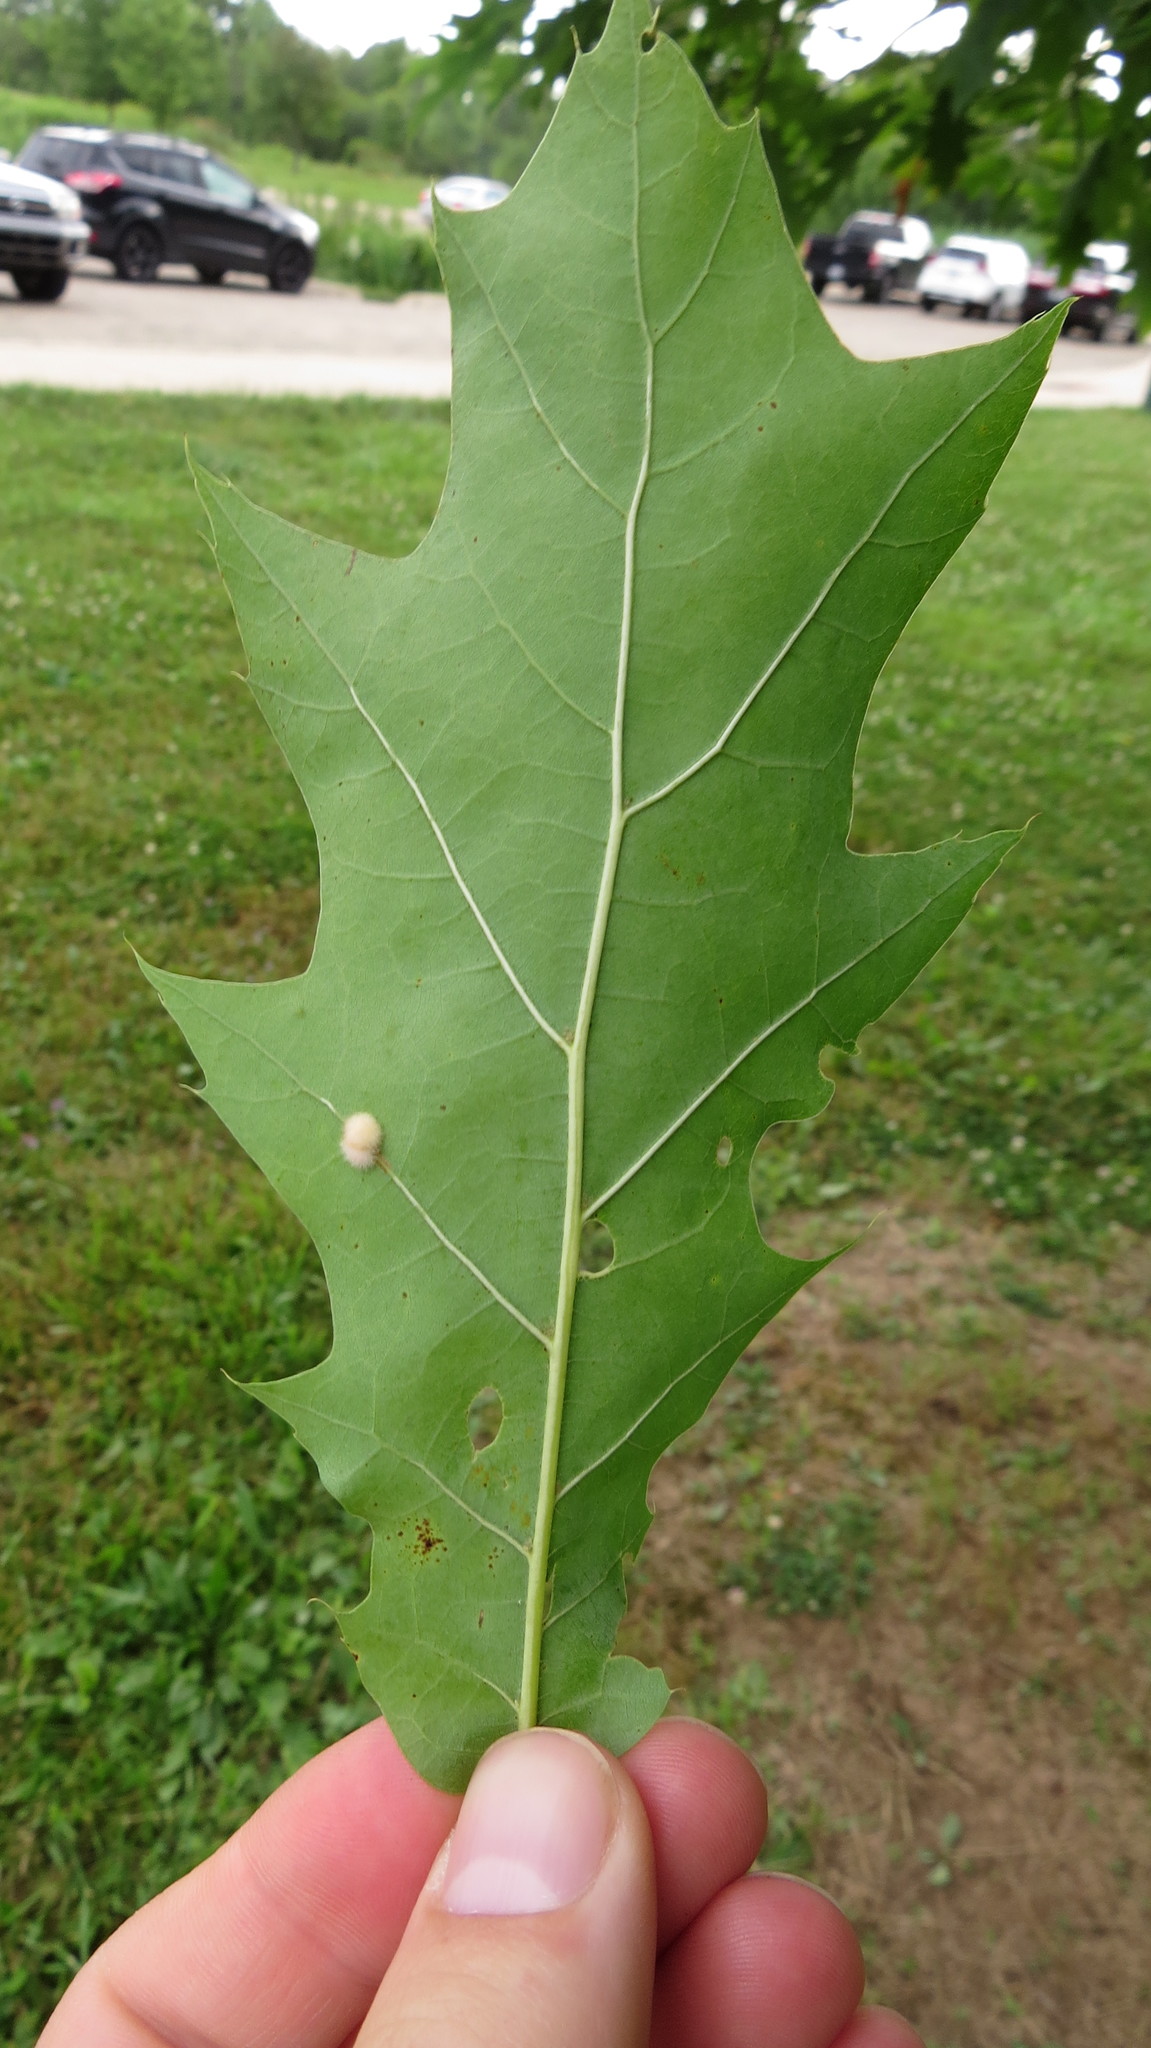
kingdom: Animalia
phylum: Arthropoda
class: Insecta
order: Hymenoptera
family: Cynipidae
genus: Callirhytis
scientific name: Callirhytis
